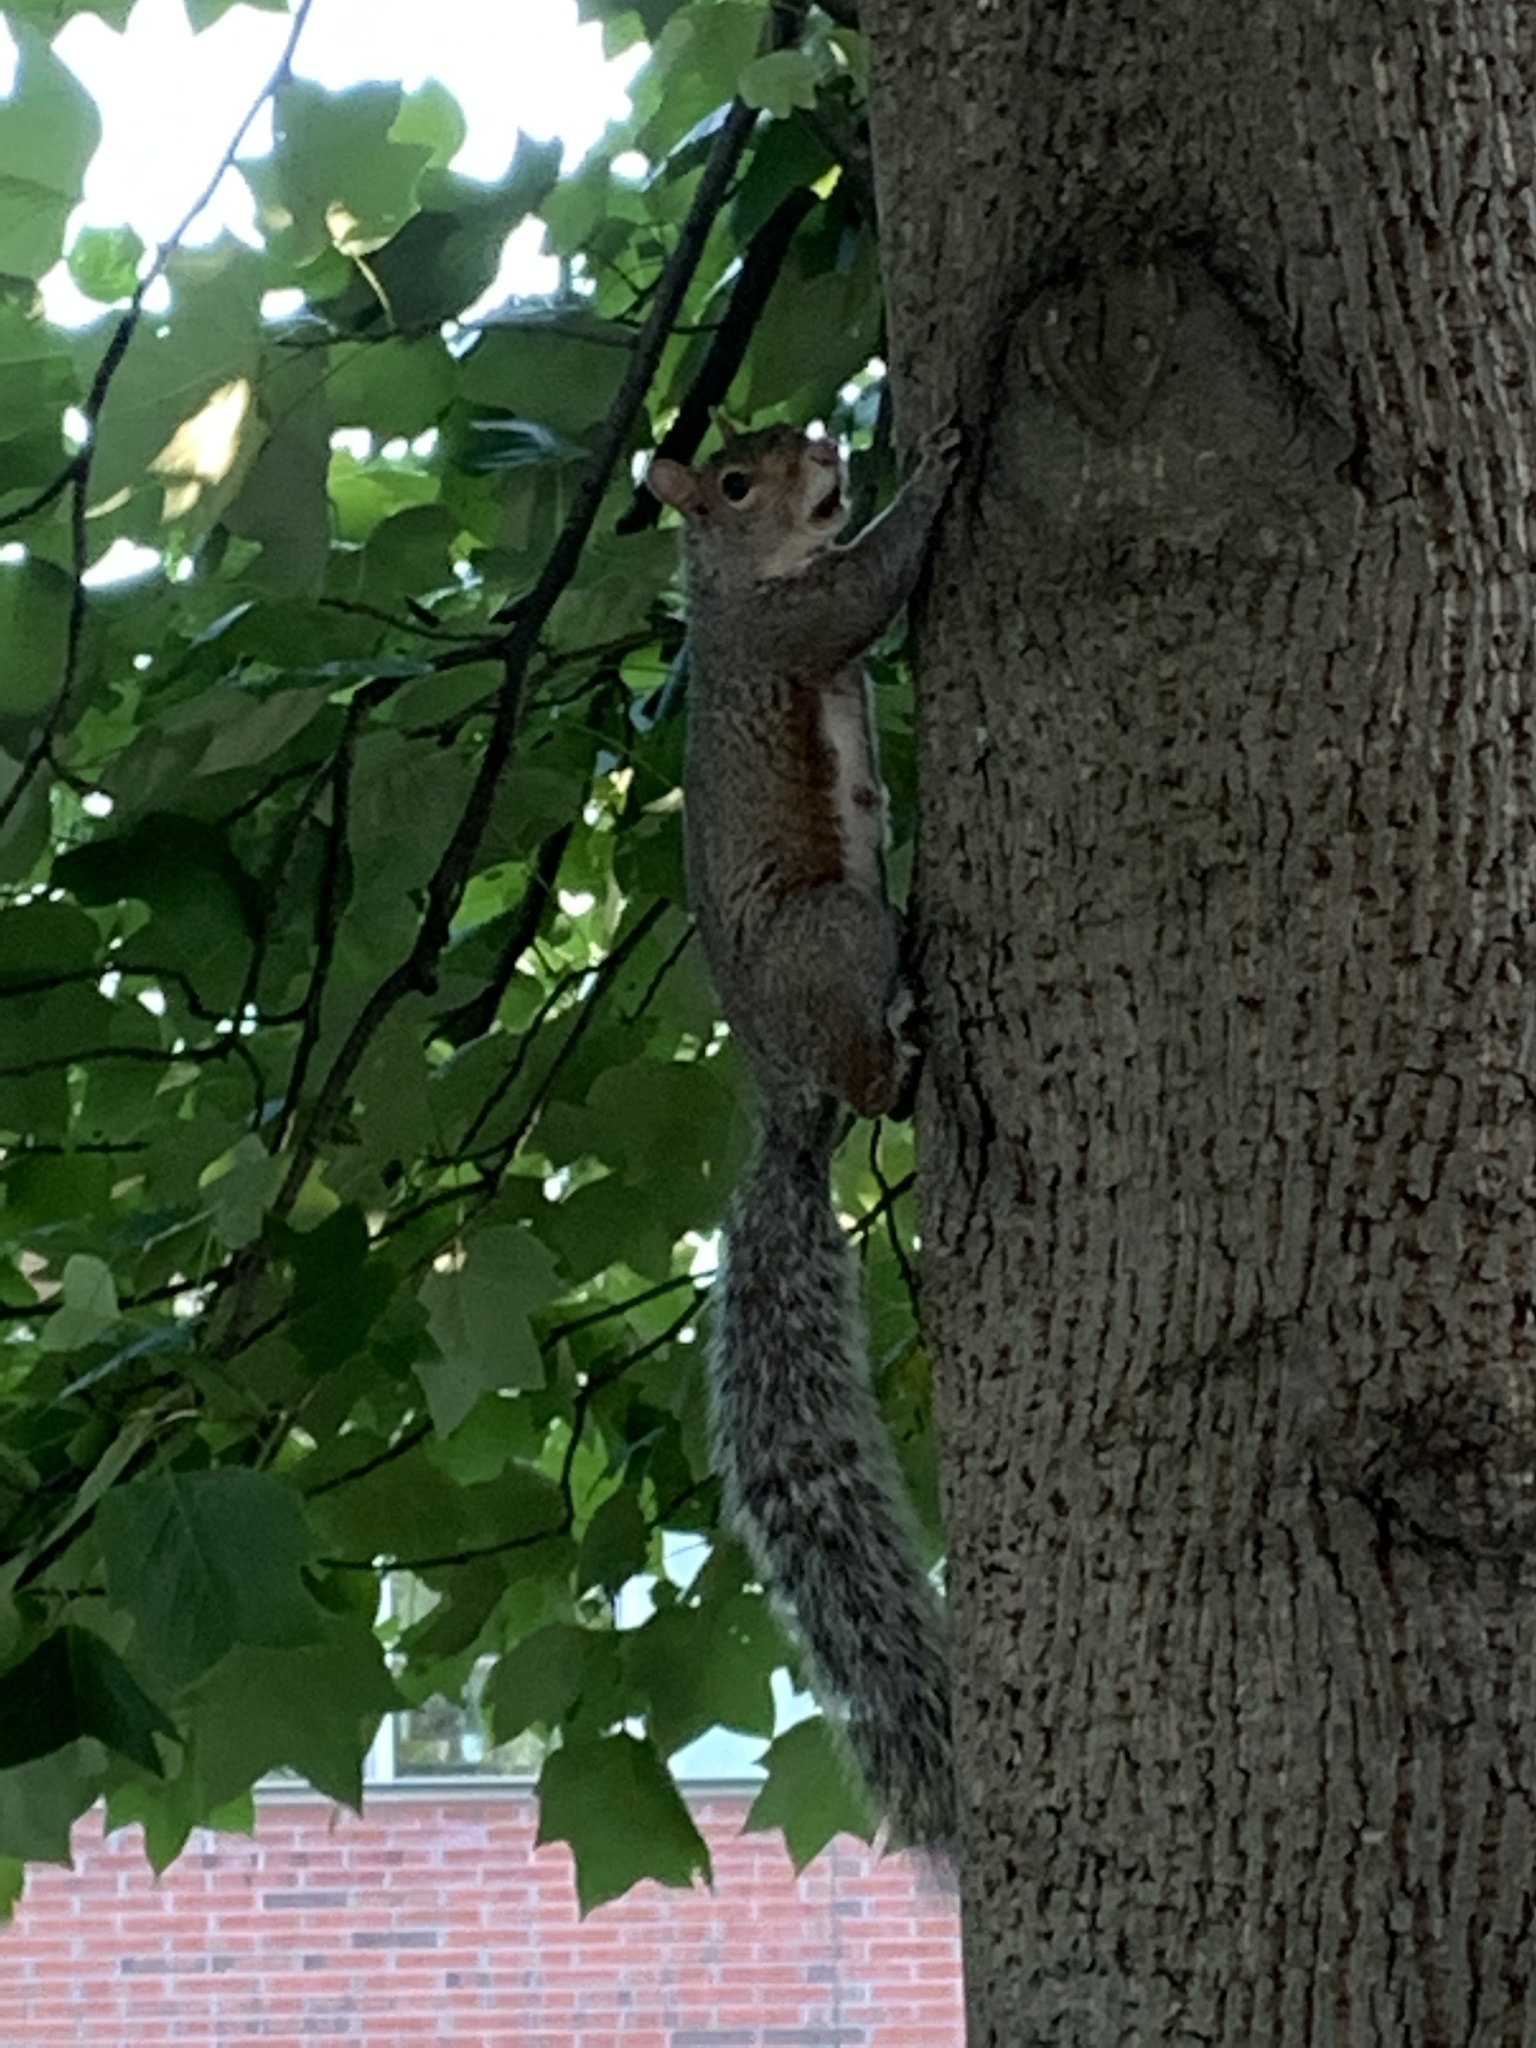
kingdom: Animalia
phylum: Chordata
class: Mammalia
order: Rodentia
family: Sciuridae
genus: Sciurus
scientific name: Sciurus carolinensis
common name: Eastern gray squirrel
